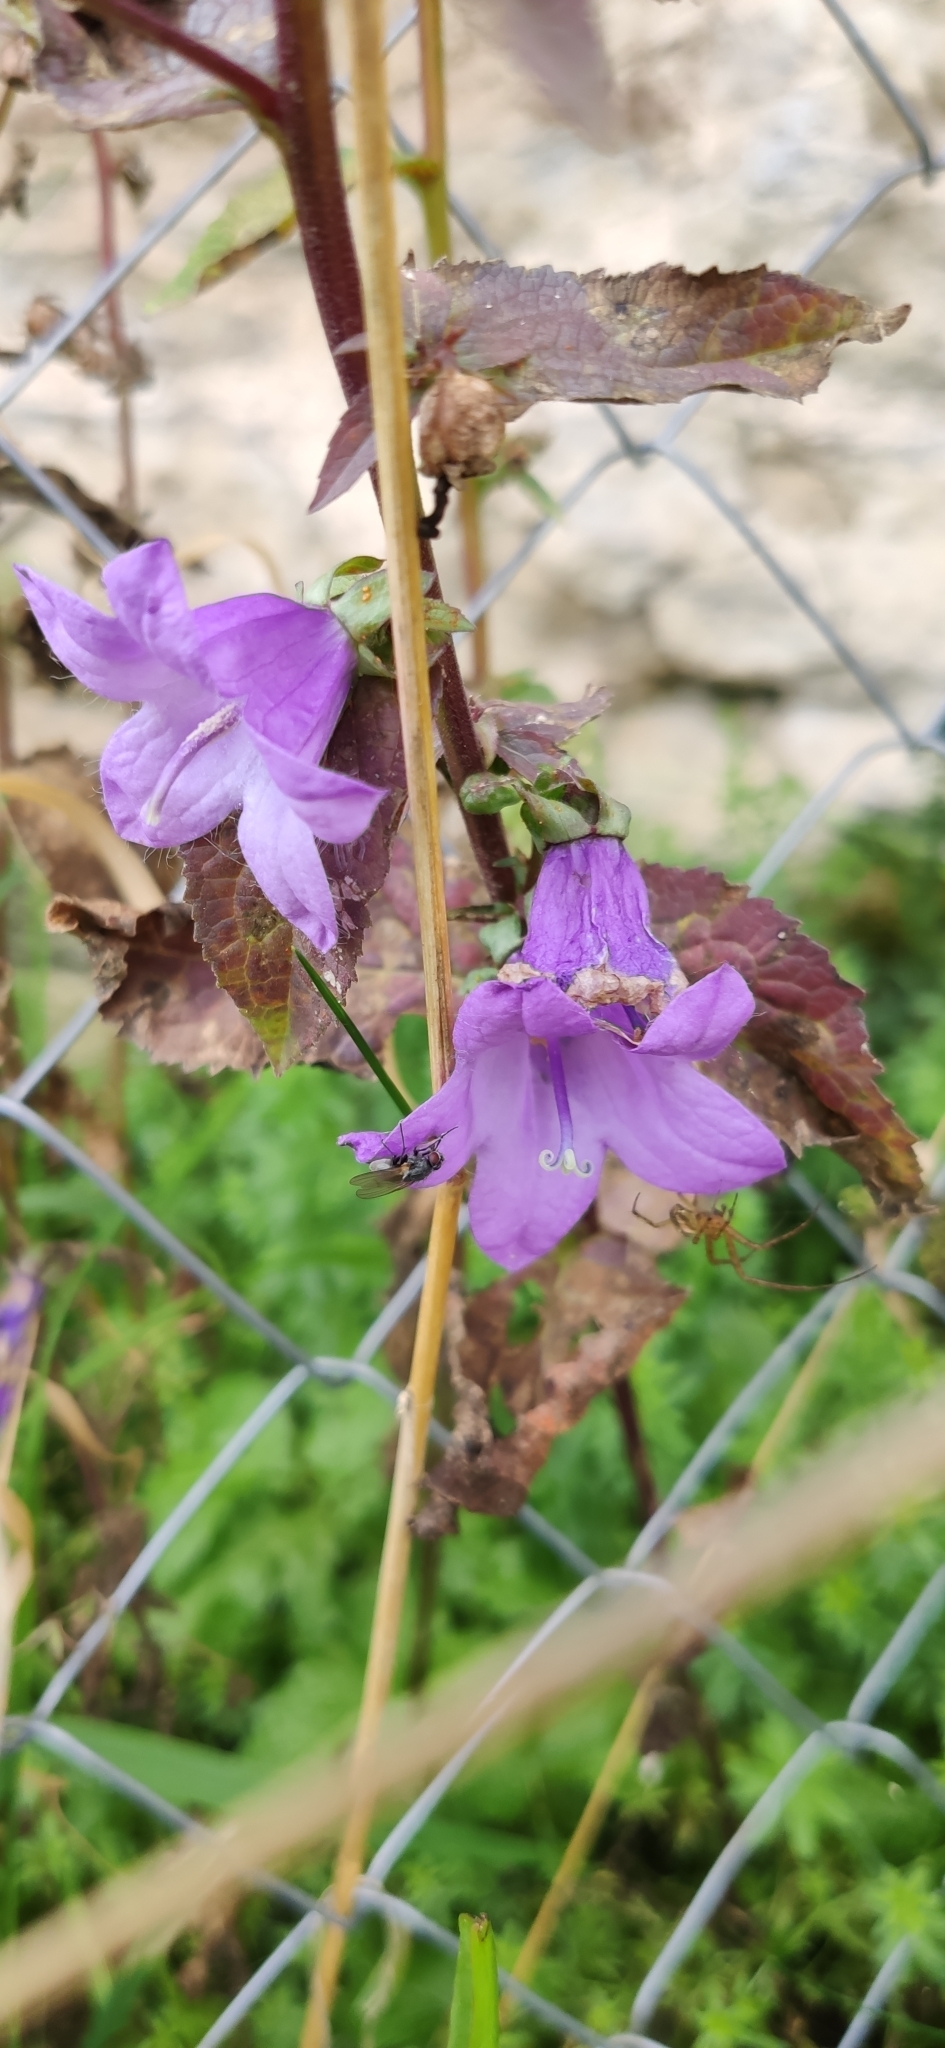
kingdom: Plantae
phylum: Tracheophyta
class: Magnoliopsida
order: Asterales
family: Campanulaceae
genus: Campanula
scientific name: Campanula rapunculoides
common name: Creeping bellflower
